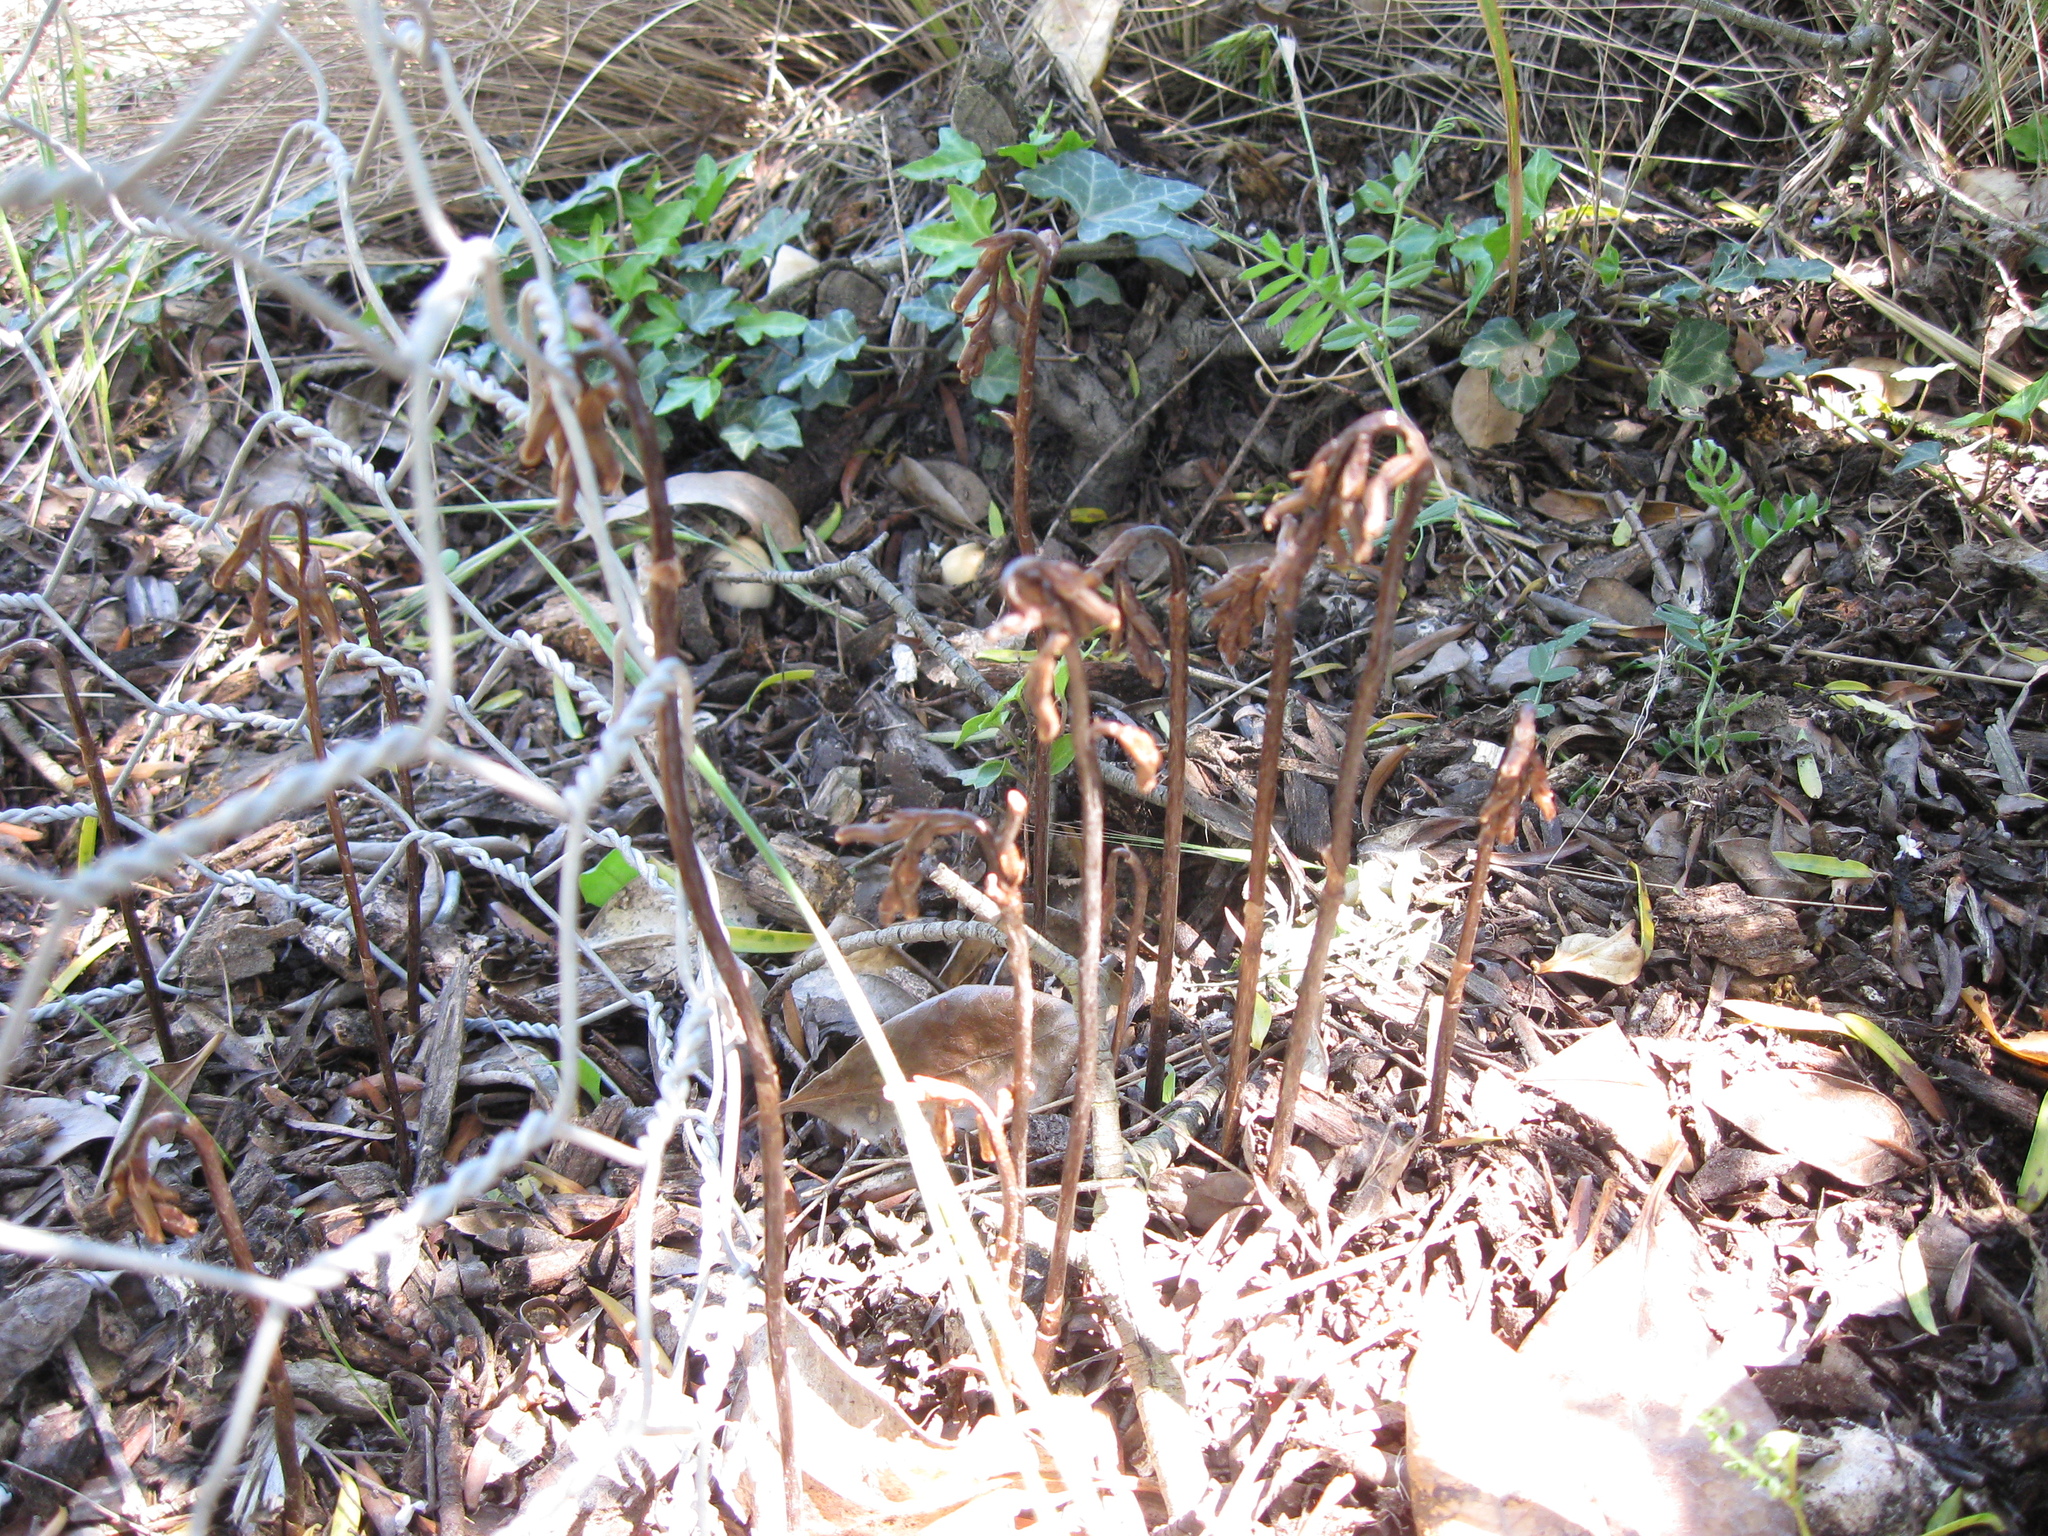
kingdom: Plantae
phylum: Tracheophyta
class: Liliopsida
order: Asparagales
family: Orchidaceae
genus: Gastrodia
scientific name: Gastrodia minor
